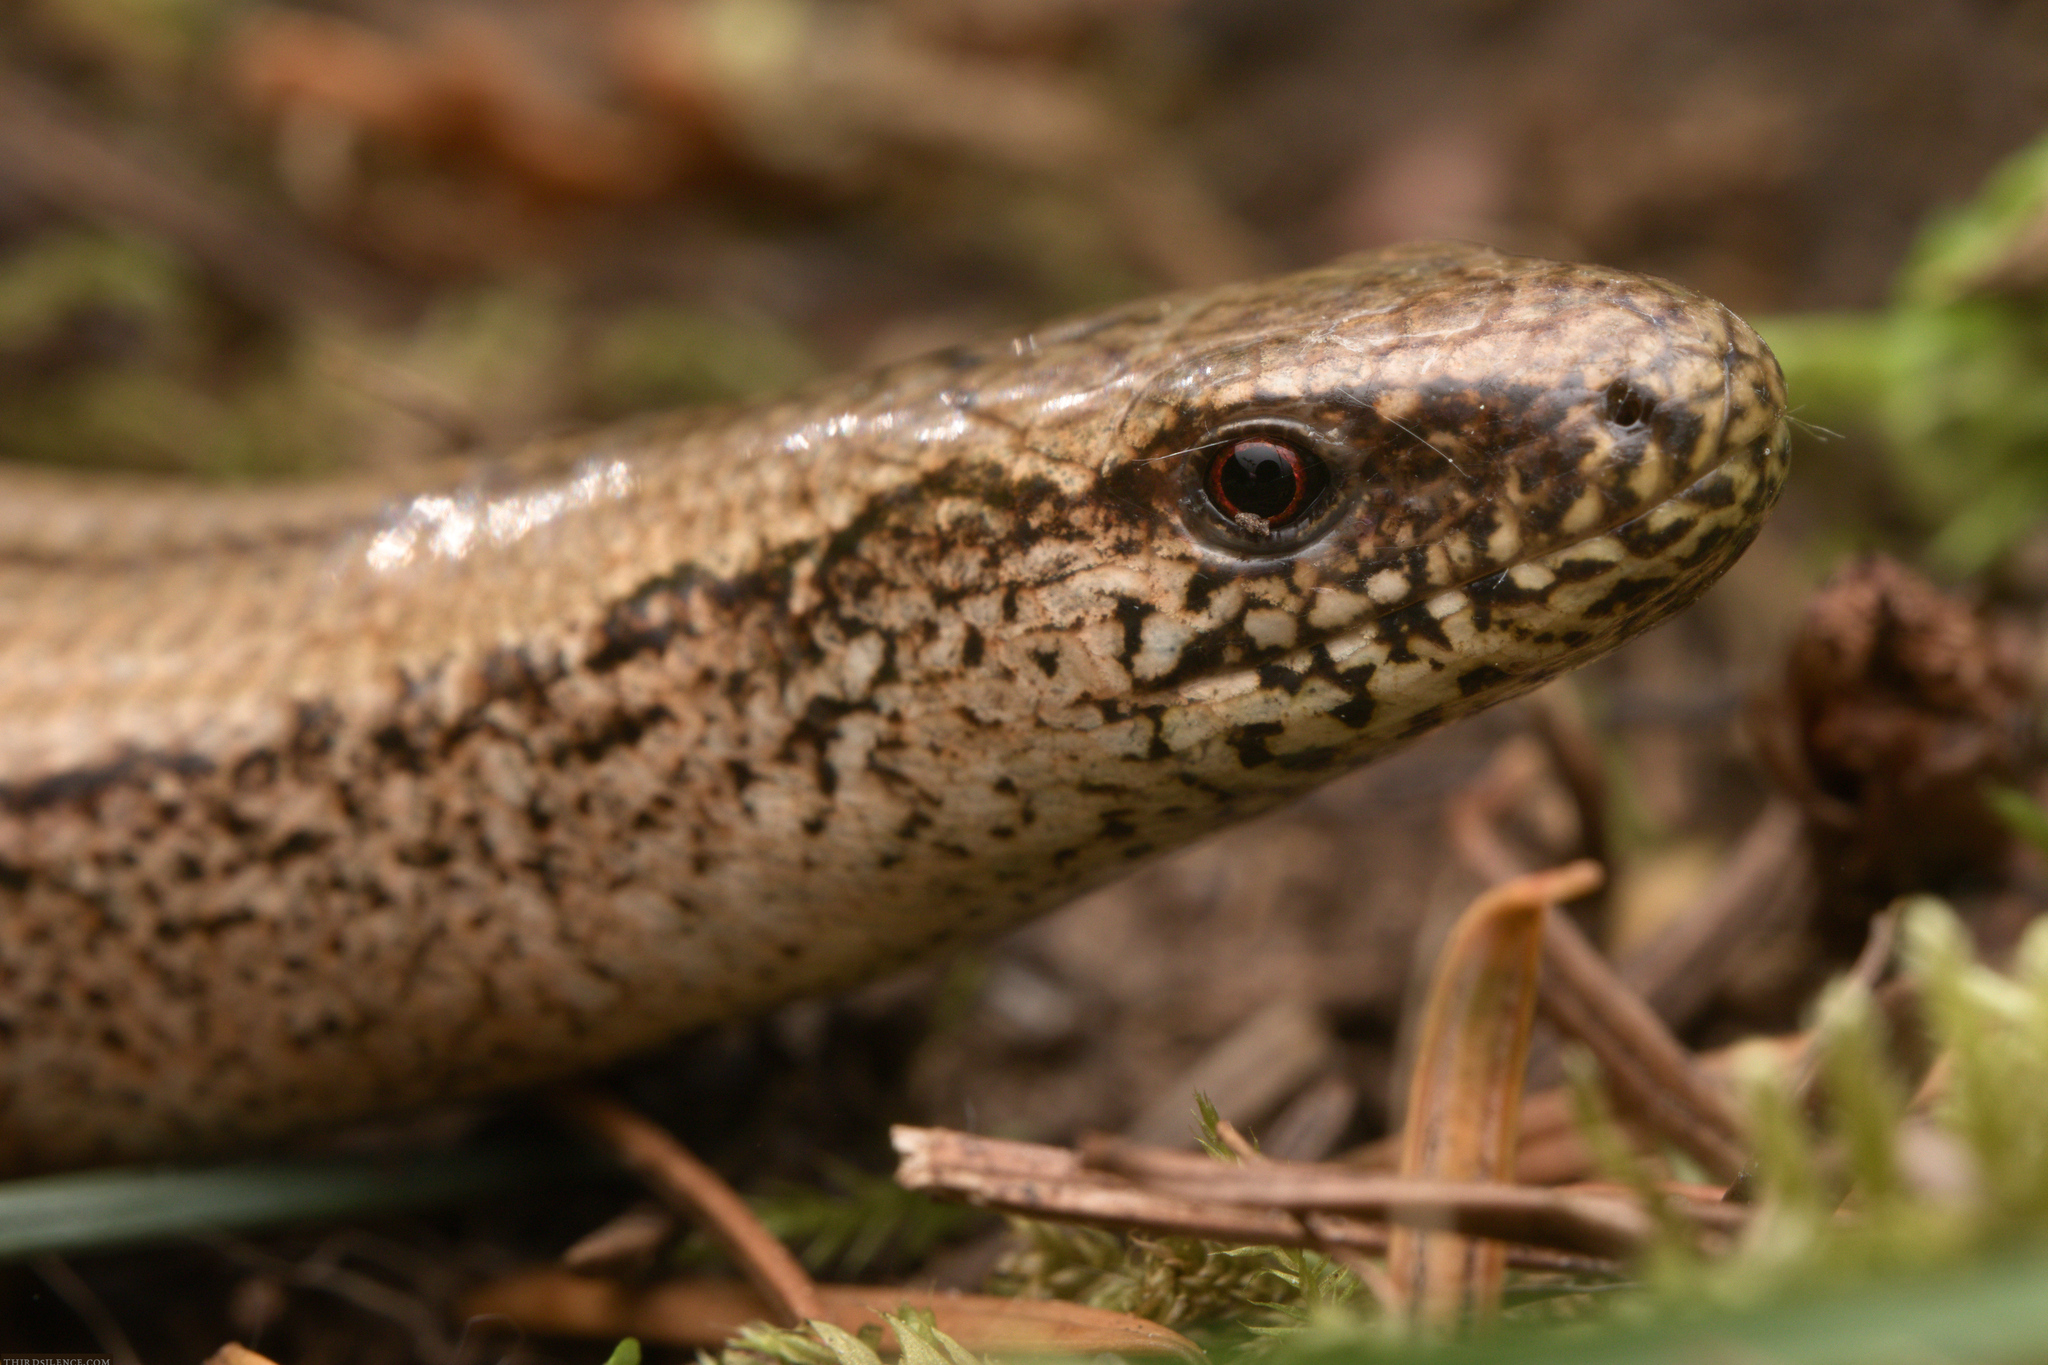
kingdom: Animalia
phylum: Chordata
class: Squamata
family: Anguidae
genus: Anguis
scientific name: Anguis fragilis
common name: Slow worm
